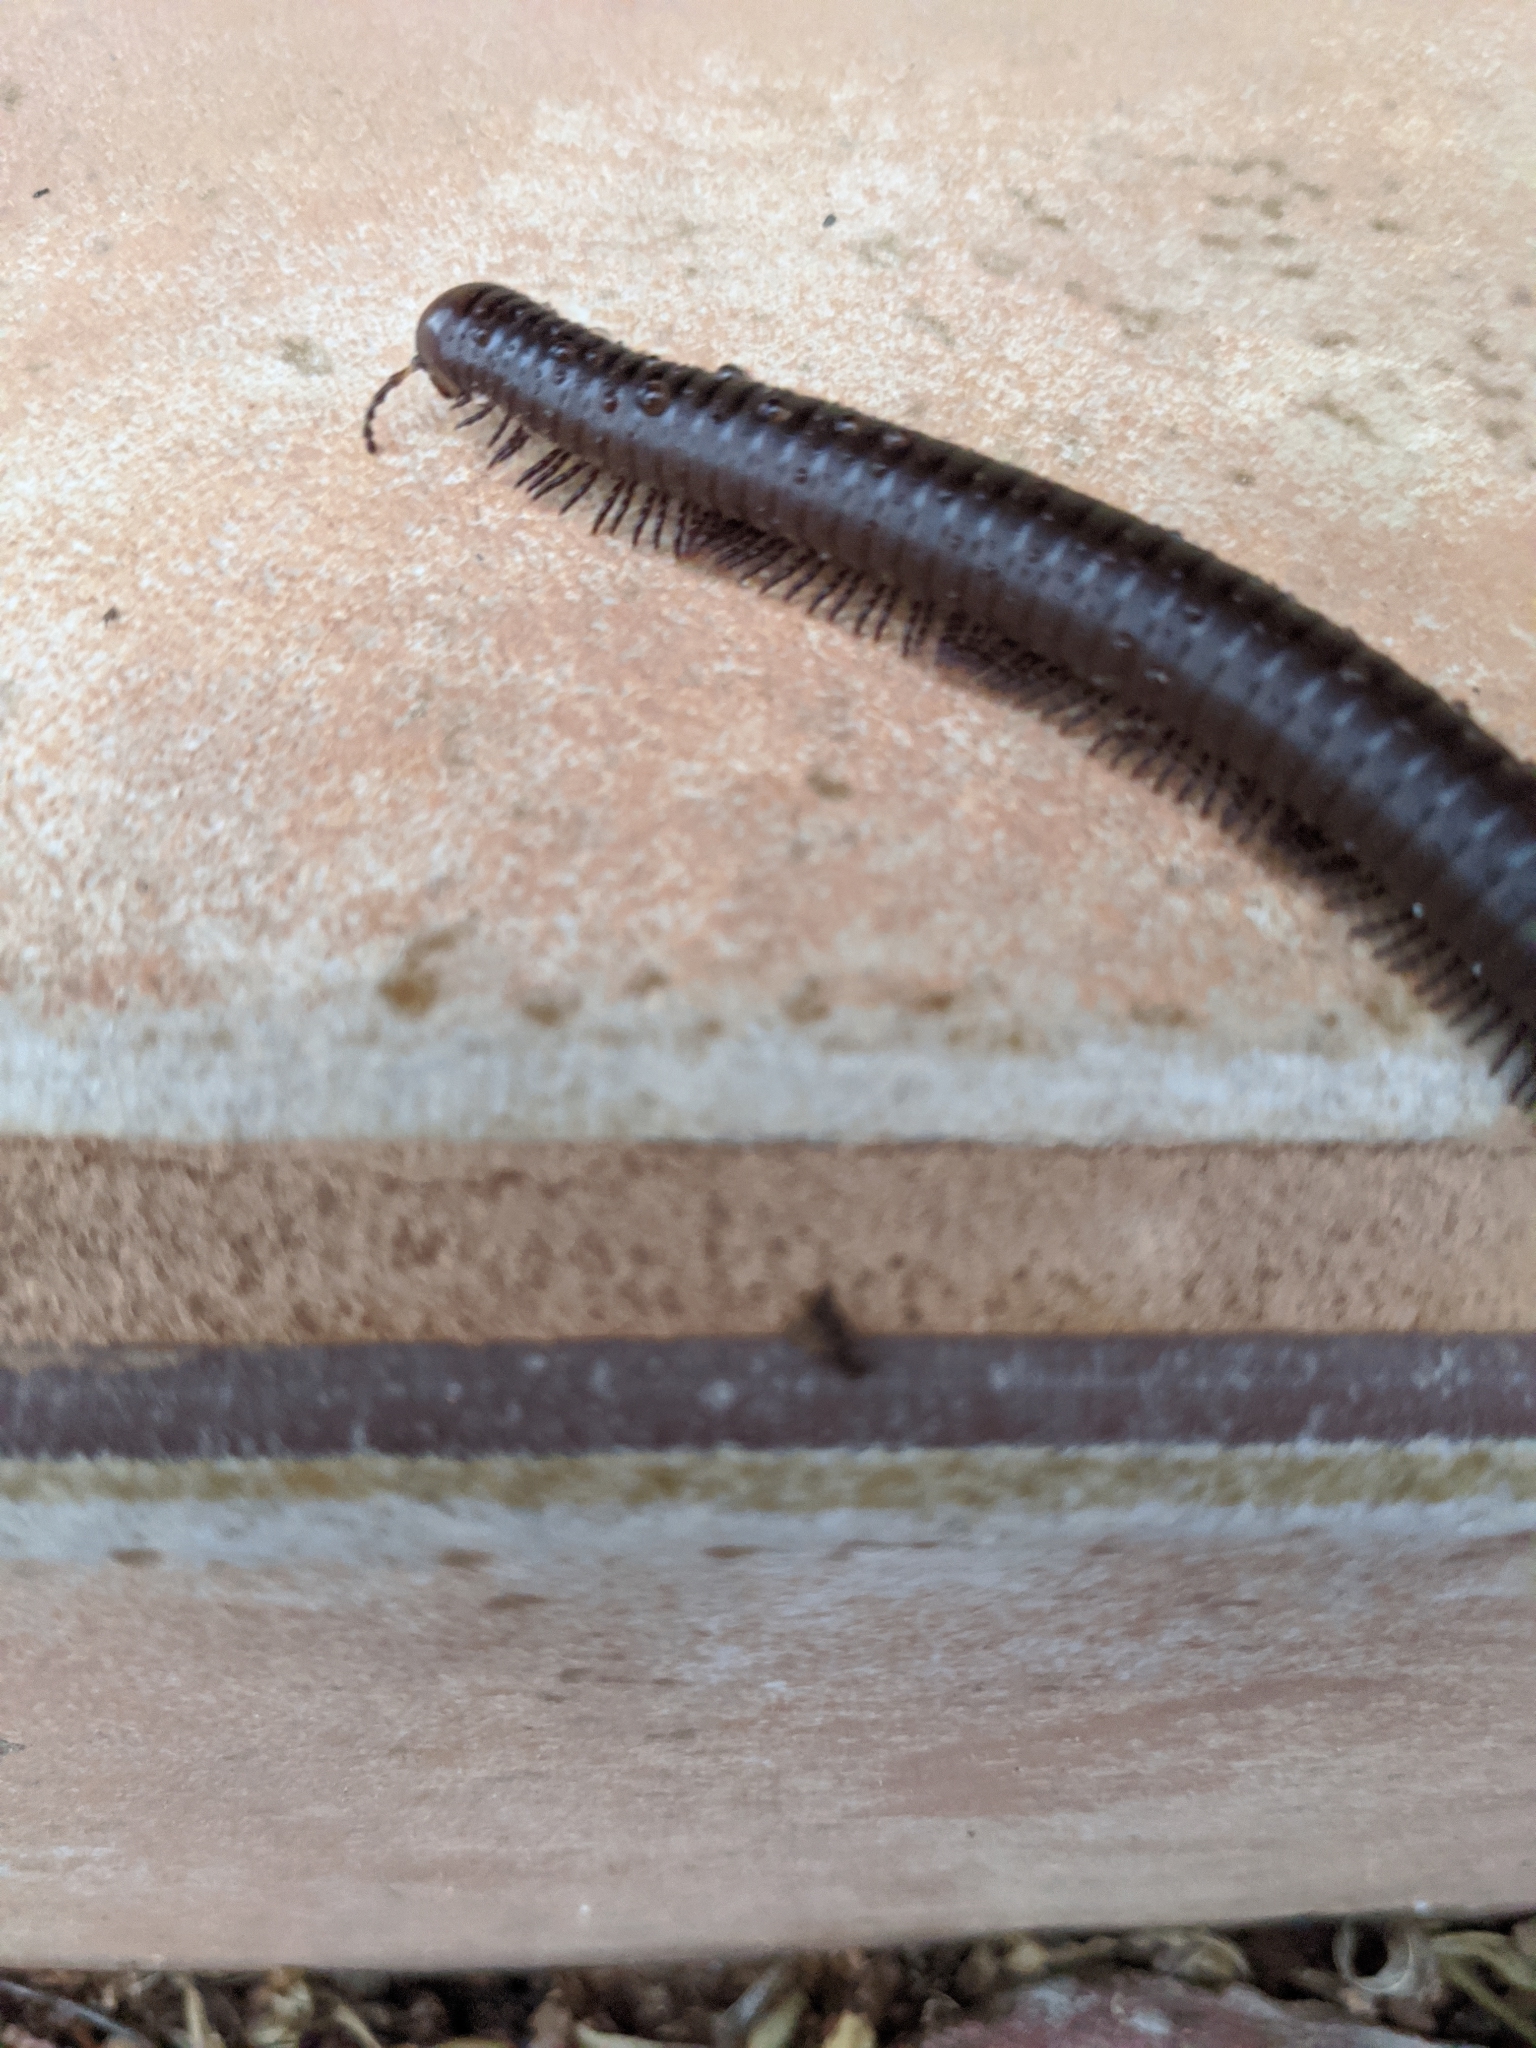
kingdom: Animalia
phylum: Arthropoda
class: Diplopoda
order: Spirostreptida
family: Spirostreptidae
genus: Orthoporus
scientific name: Orthoporus ornatus
